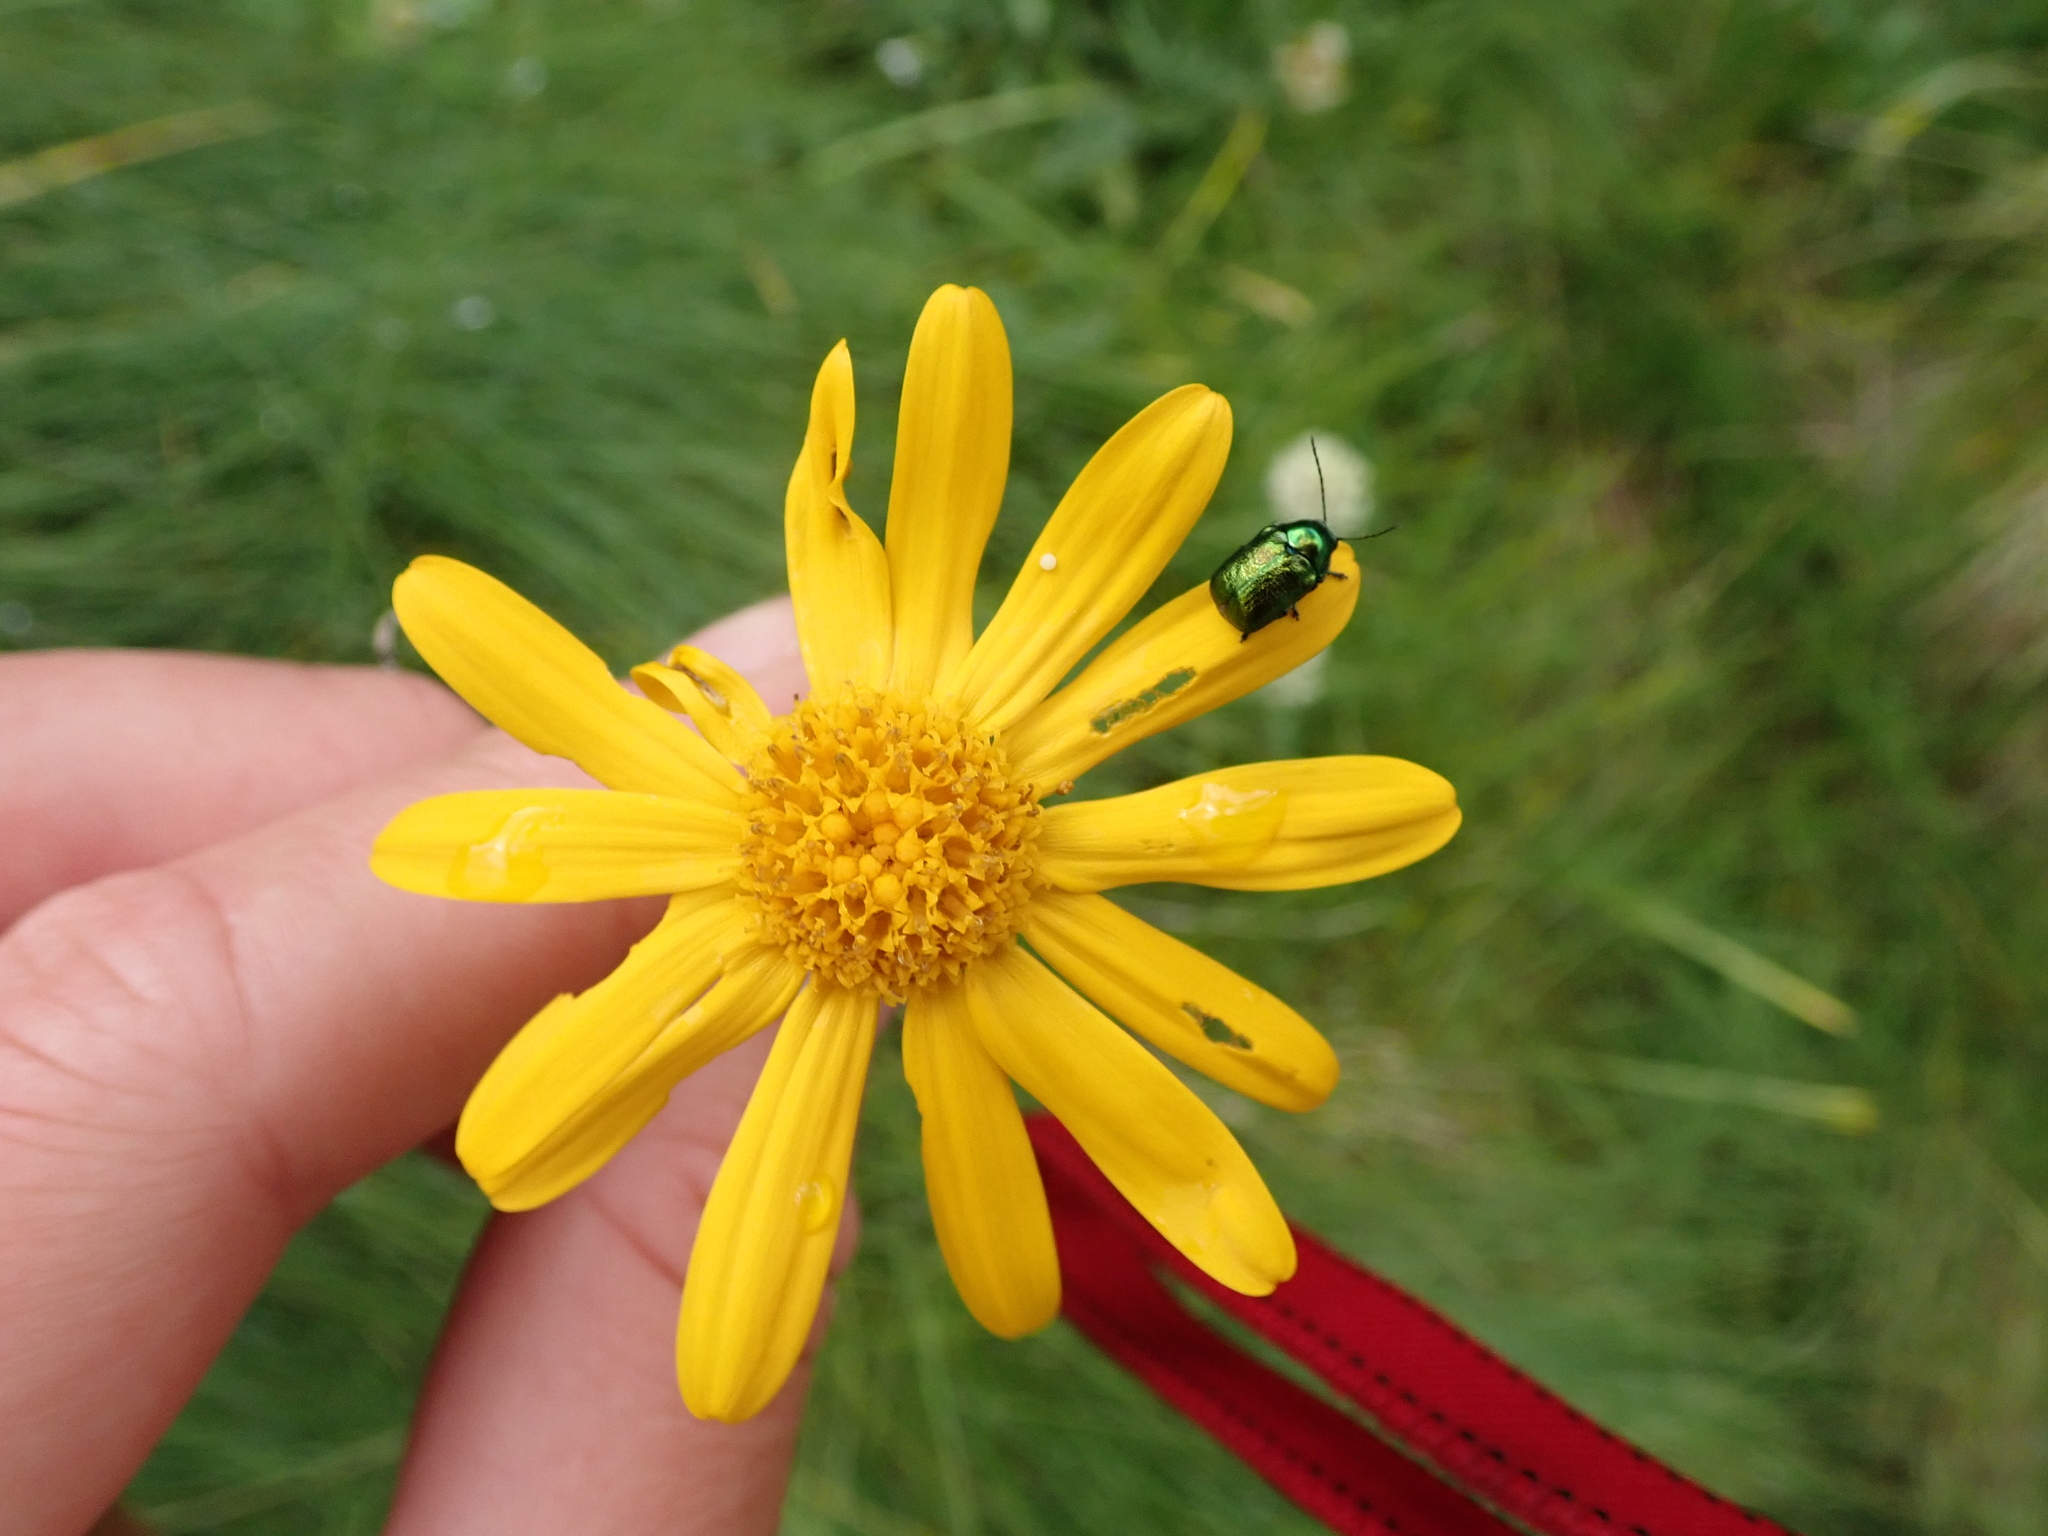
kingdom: Animalia
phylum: Arthropoda
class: Insecta
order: Coleoptera
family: Chrysomelidae
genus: Cryptocephalus
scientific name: Cryptocephalus samniticus
